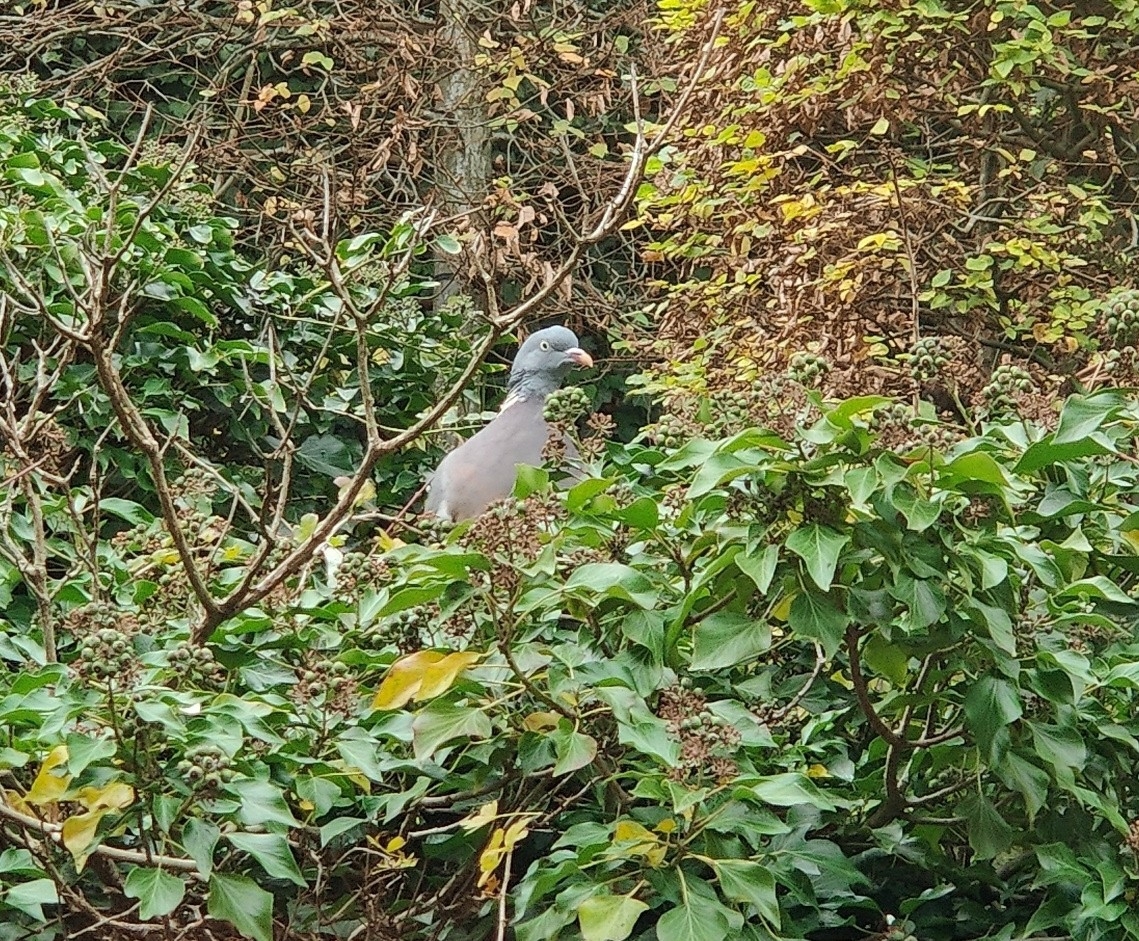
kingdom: Animalia
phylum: Chordata
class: Aves
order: Columbiformes
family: Columbidae
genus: Columba
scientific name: Columba palumbus
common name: Common wood pigeon
